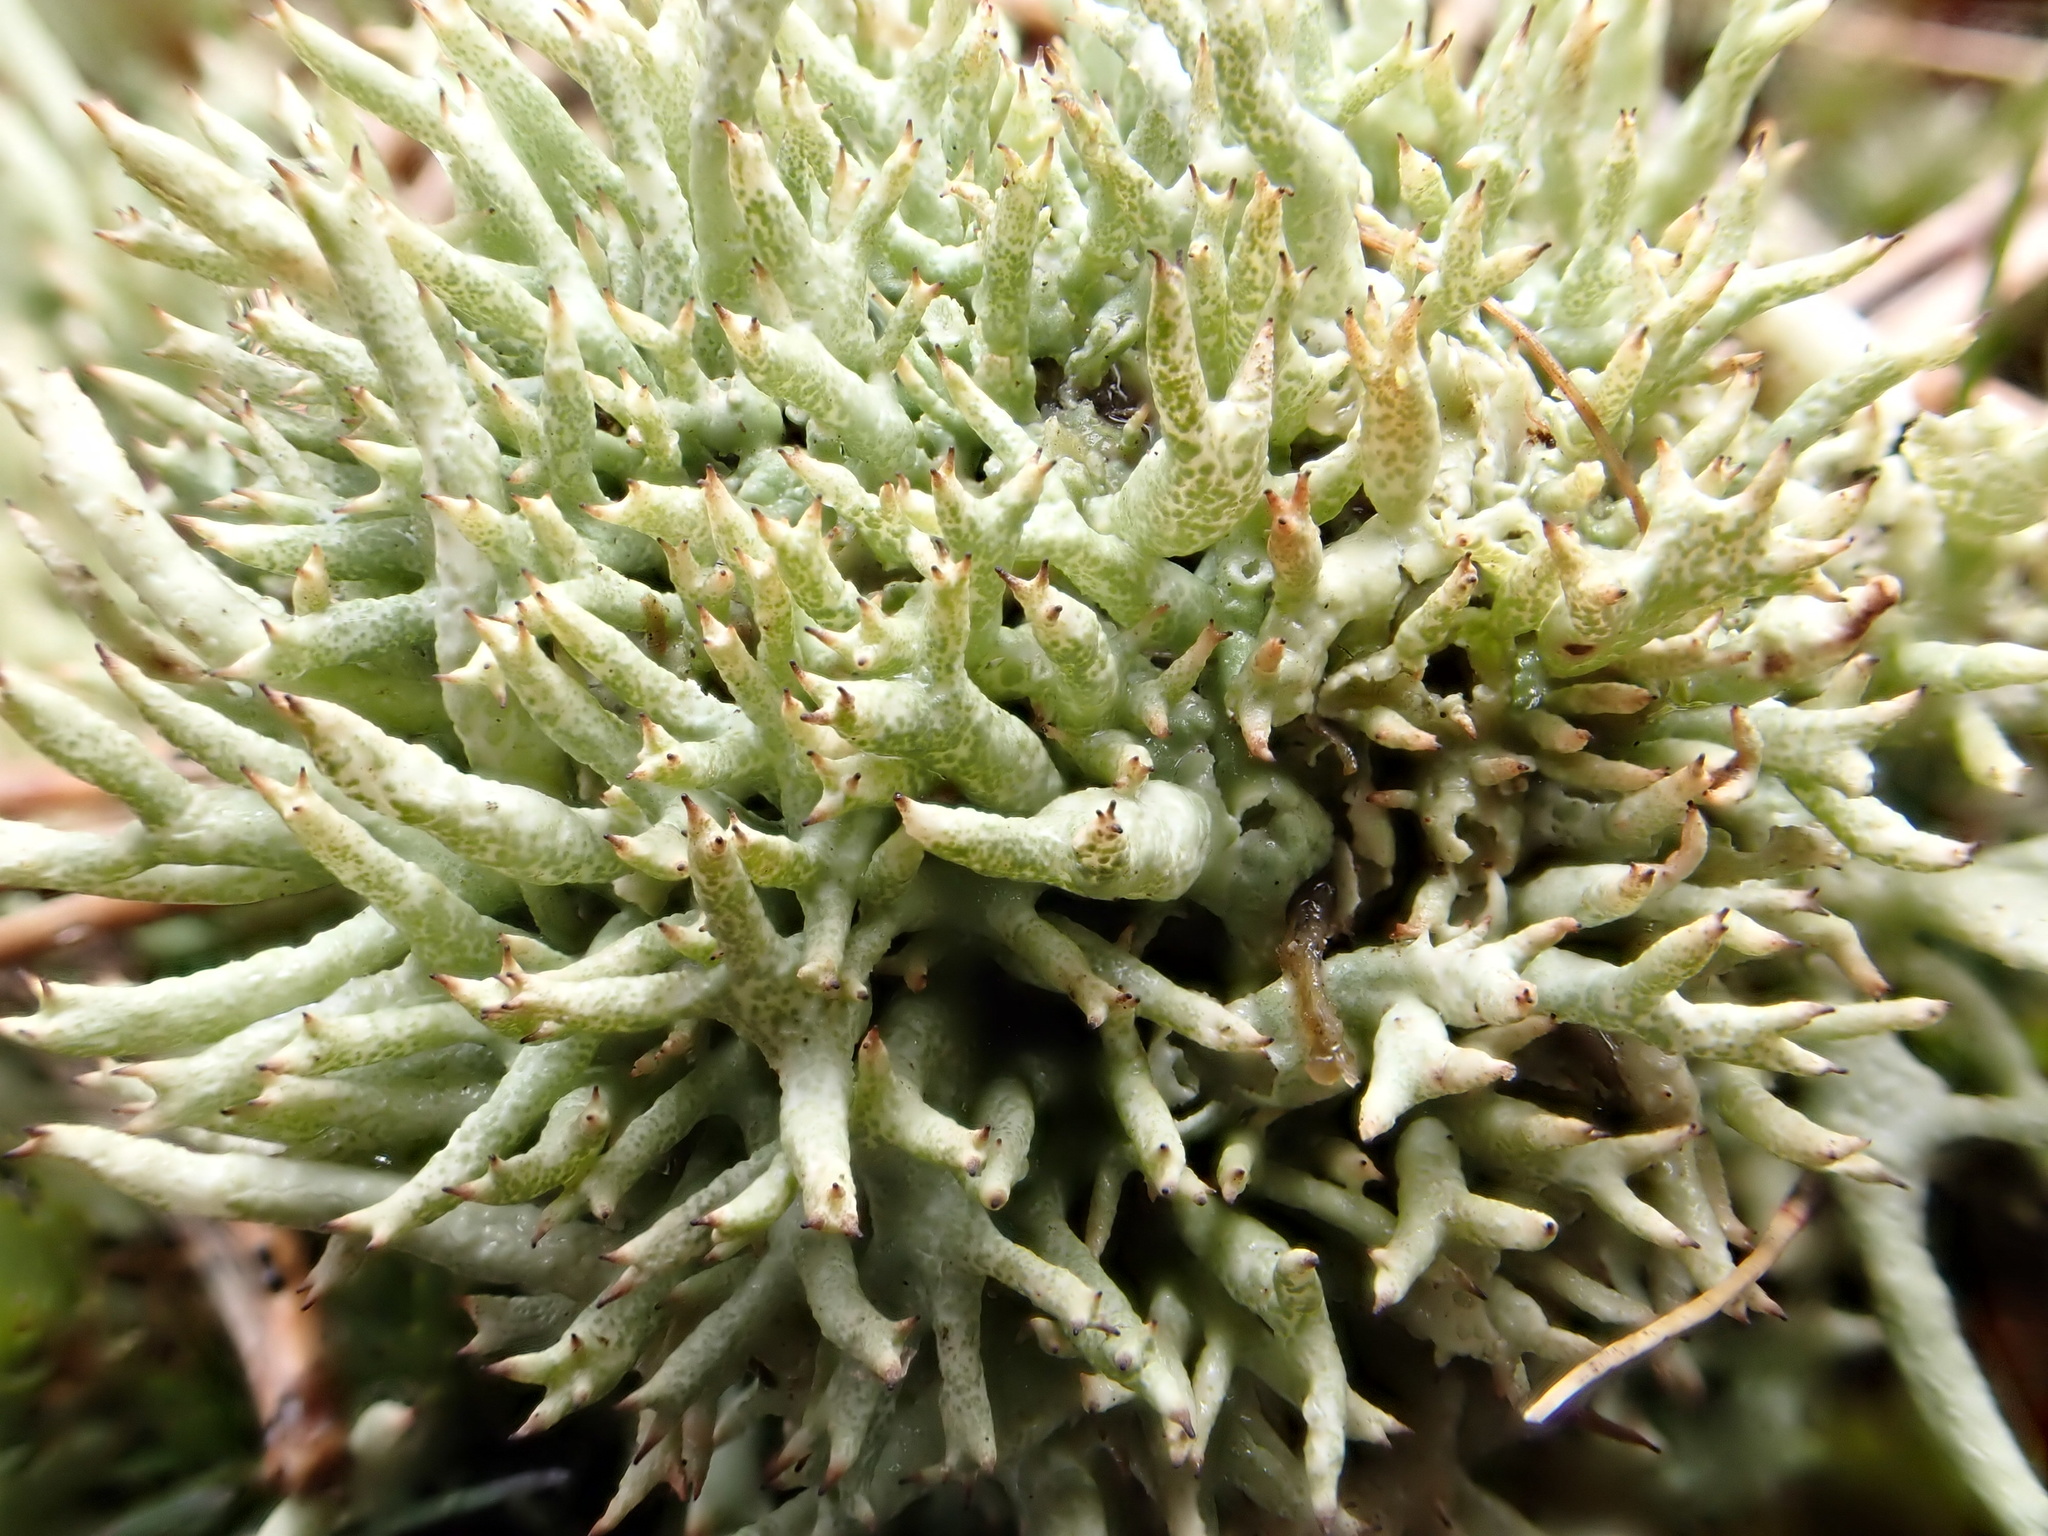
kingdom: Fungi
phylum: Ascomycota
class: Lecanoromycetes
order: Lecanorales
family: Cladoniaceae
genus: Cladonia
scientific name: Cladonia uncialis
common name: Thorn lichen
